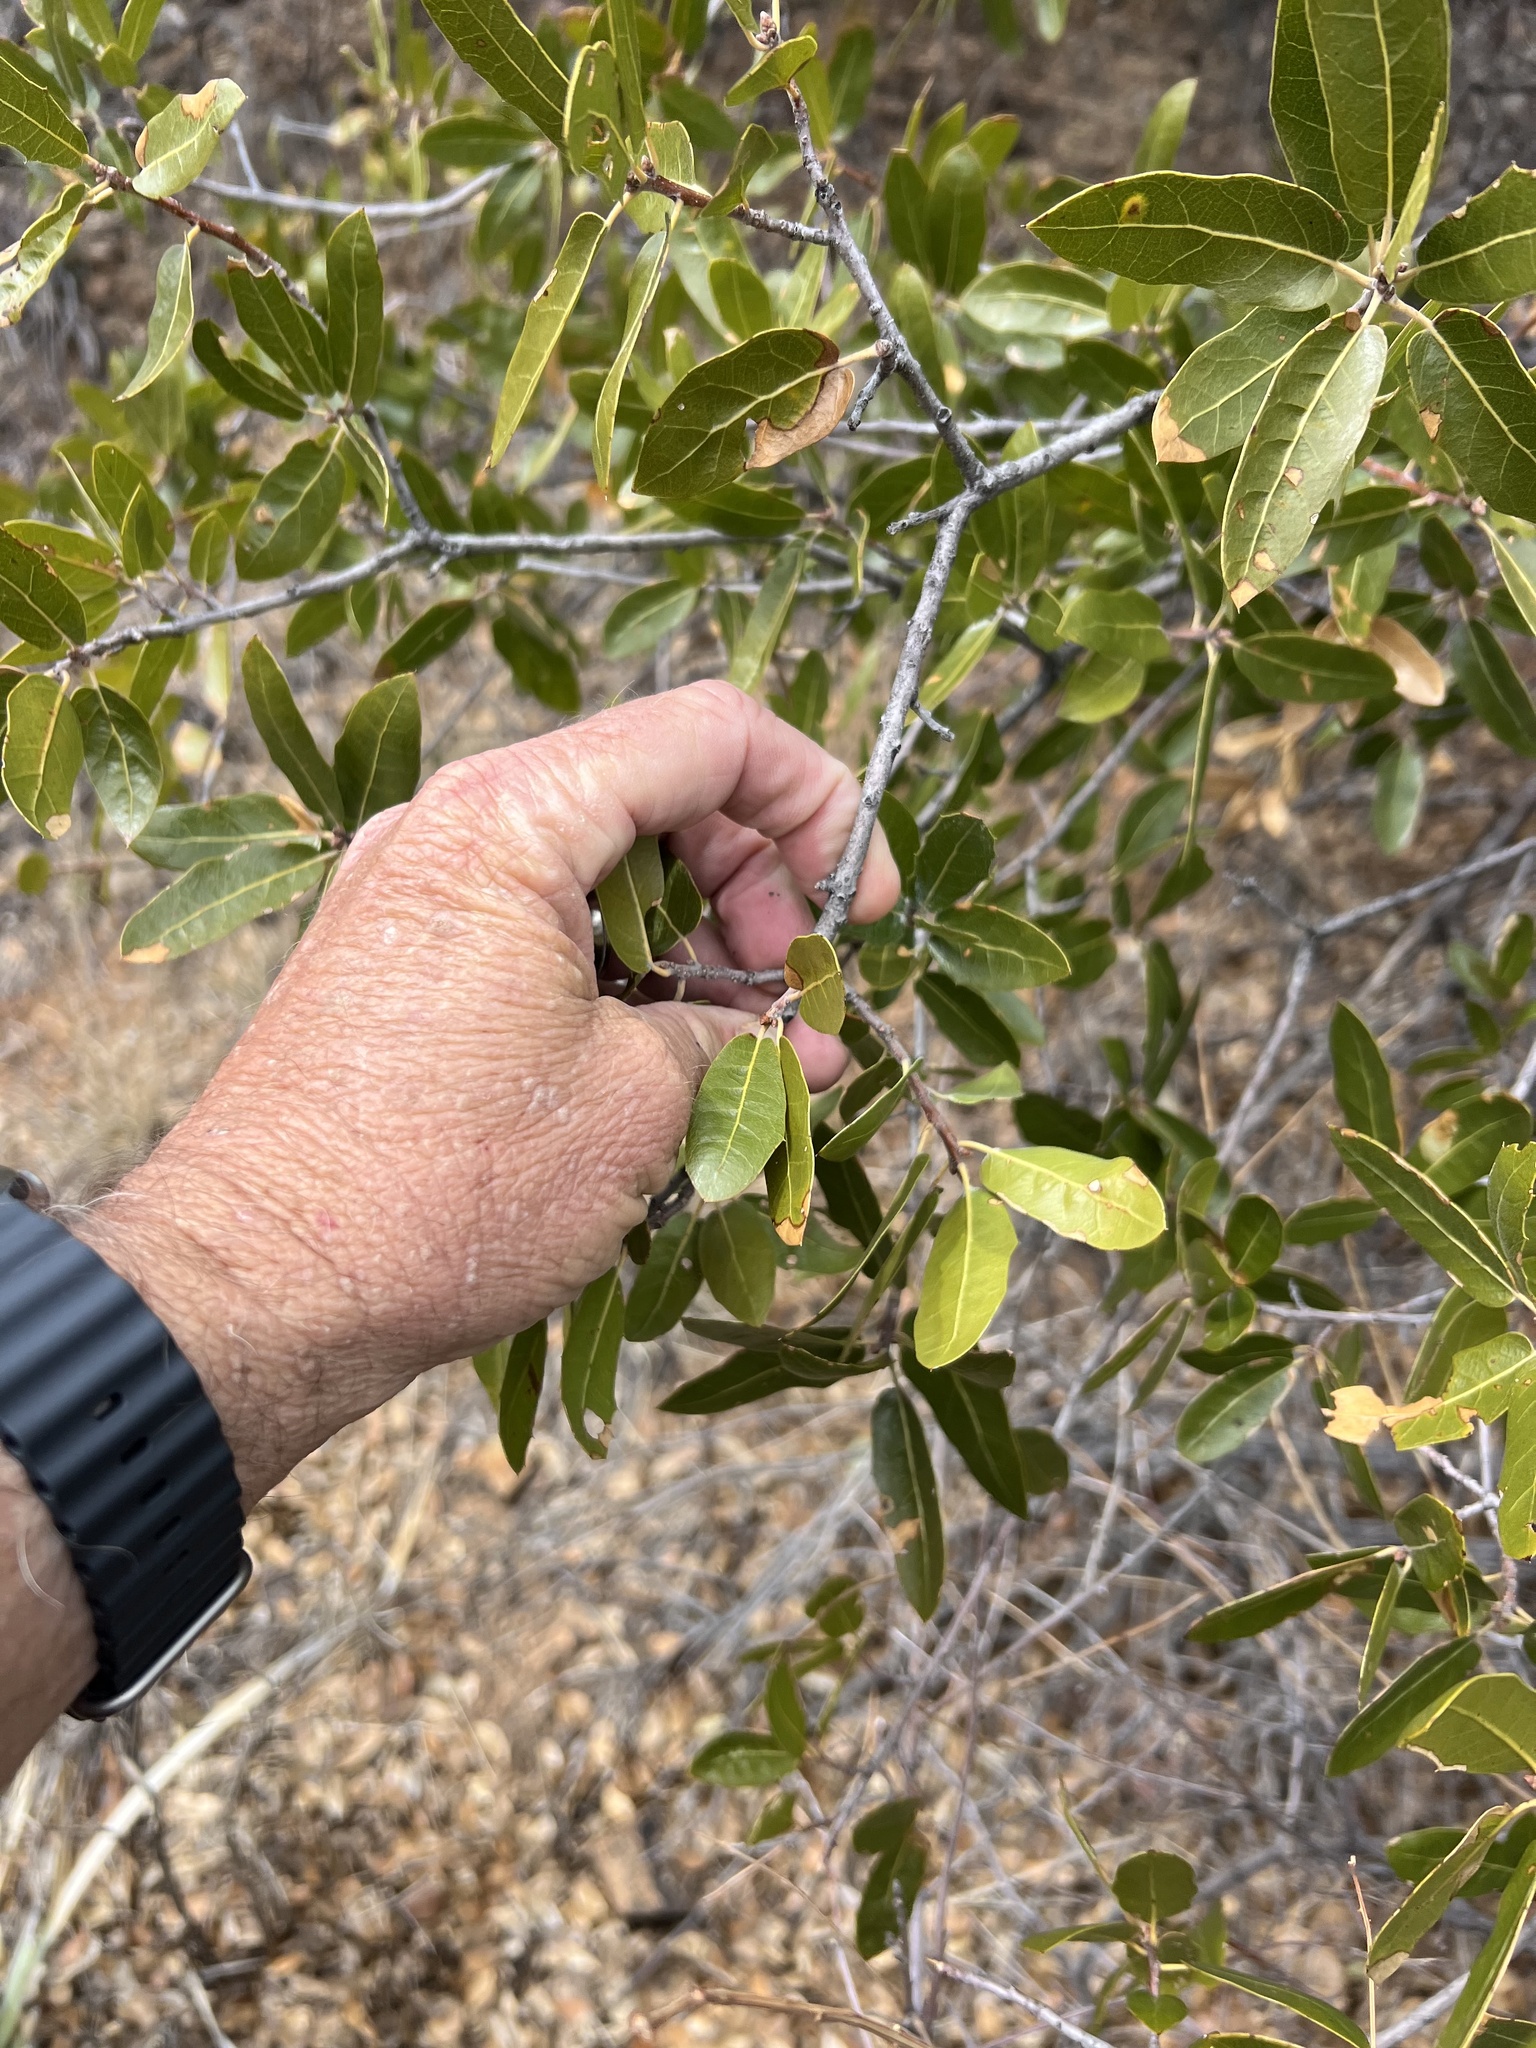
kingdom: Plantae
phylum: Tracheophyta
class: Magnoliopsida
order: Fagales
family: Fagaceae
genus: Quercus
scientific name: Quercus emoryi
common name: Emory oak
